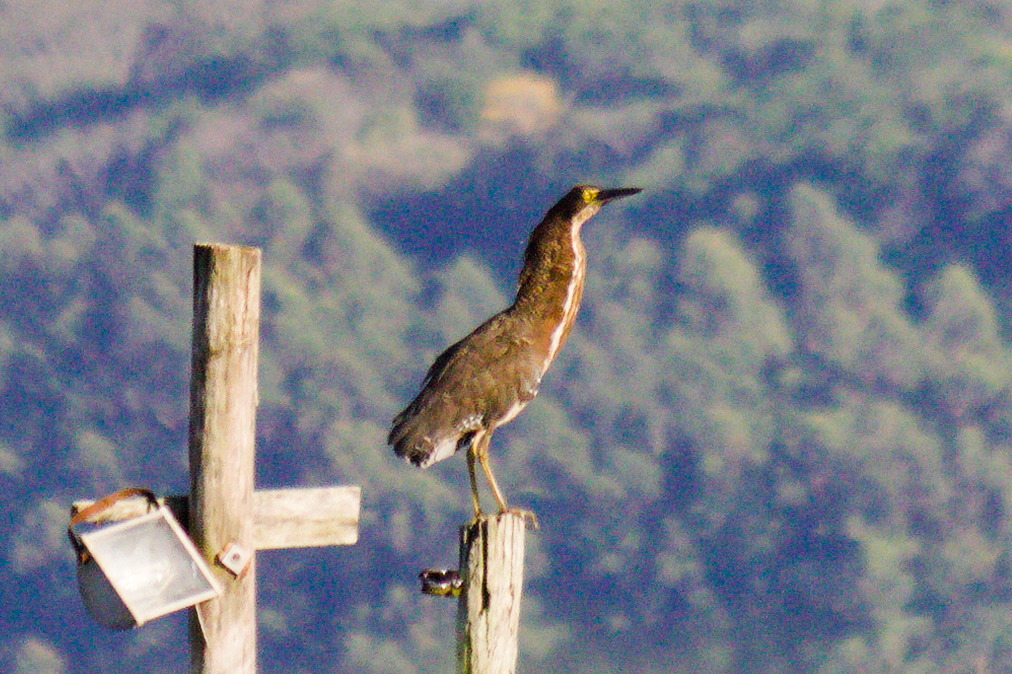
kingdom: Animalia
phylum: Chordata
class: Aves
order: Pelecaniformes
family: Ardeidae
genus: Tigrisoma
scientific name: Tigrisoma lineatum
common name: Rufescent tiger-heron
